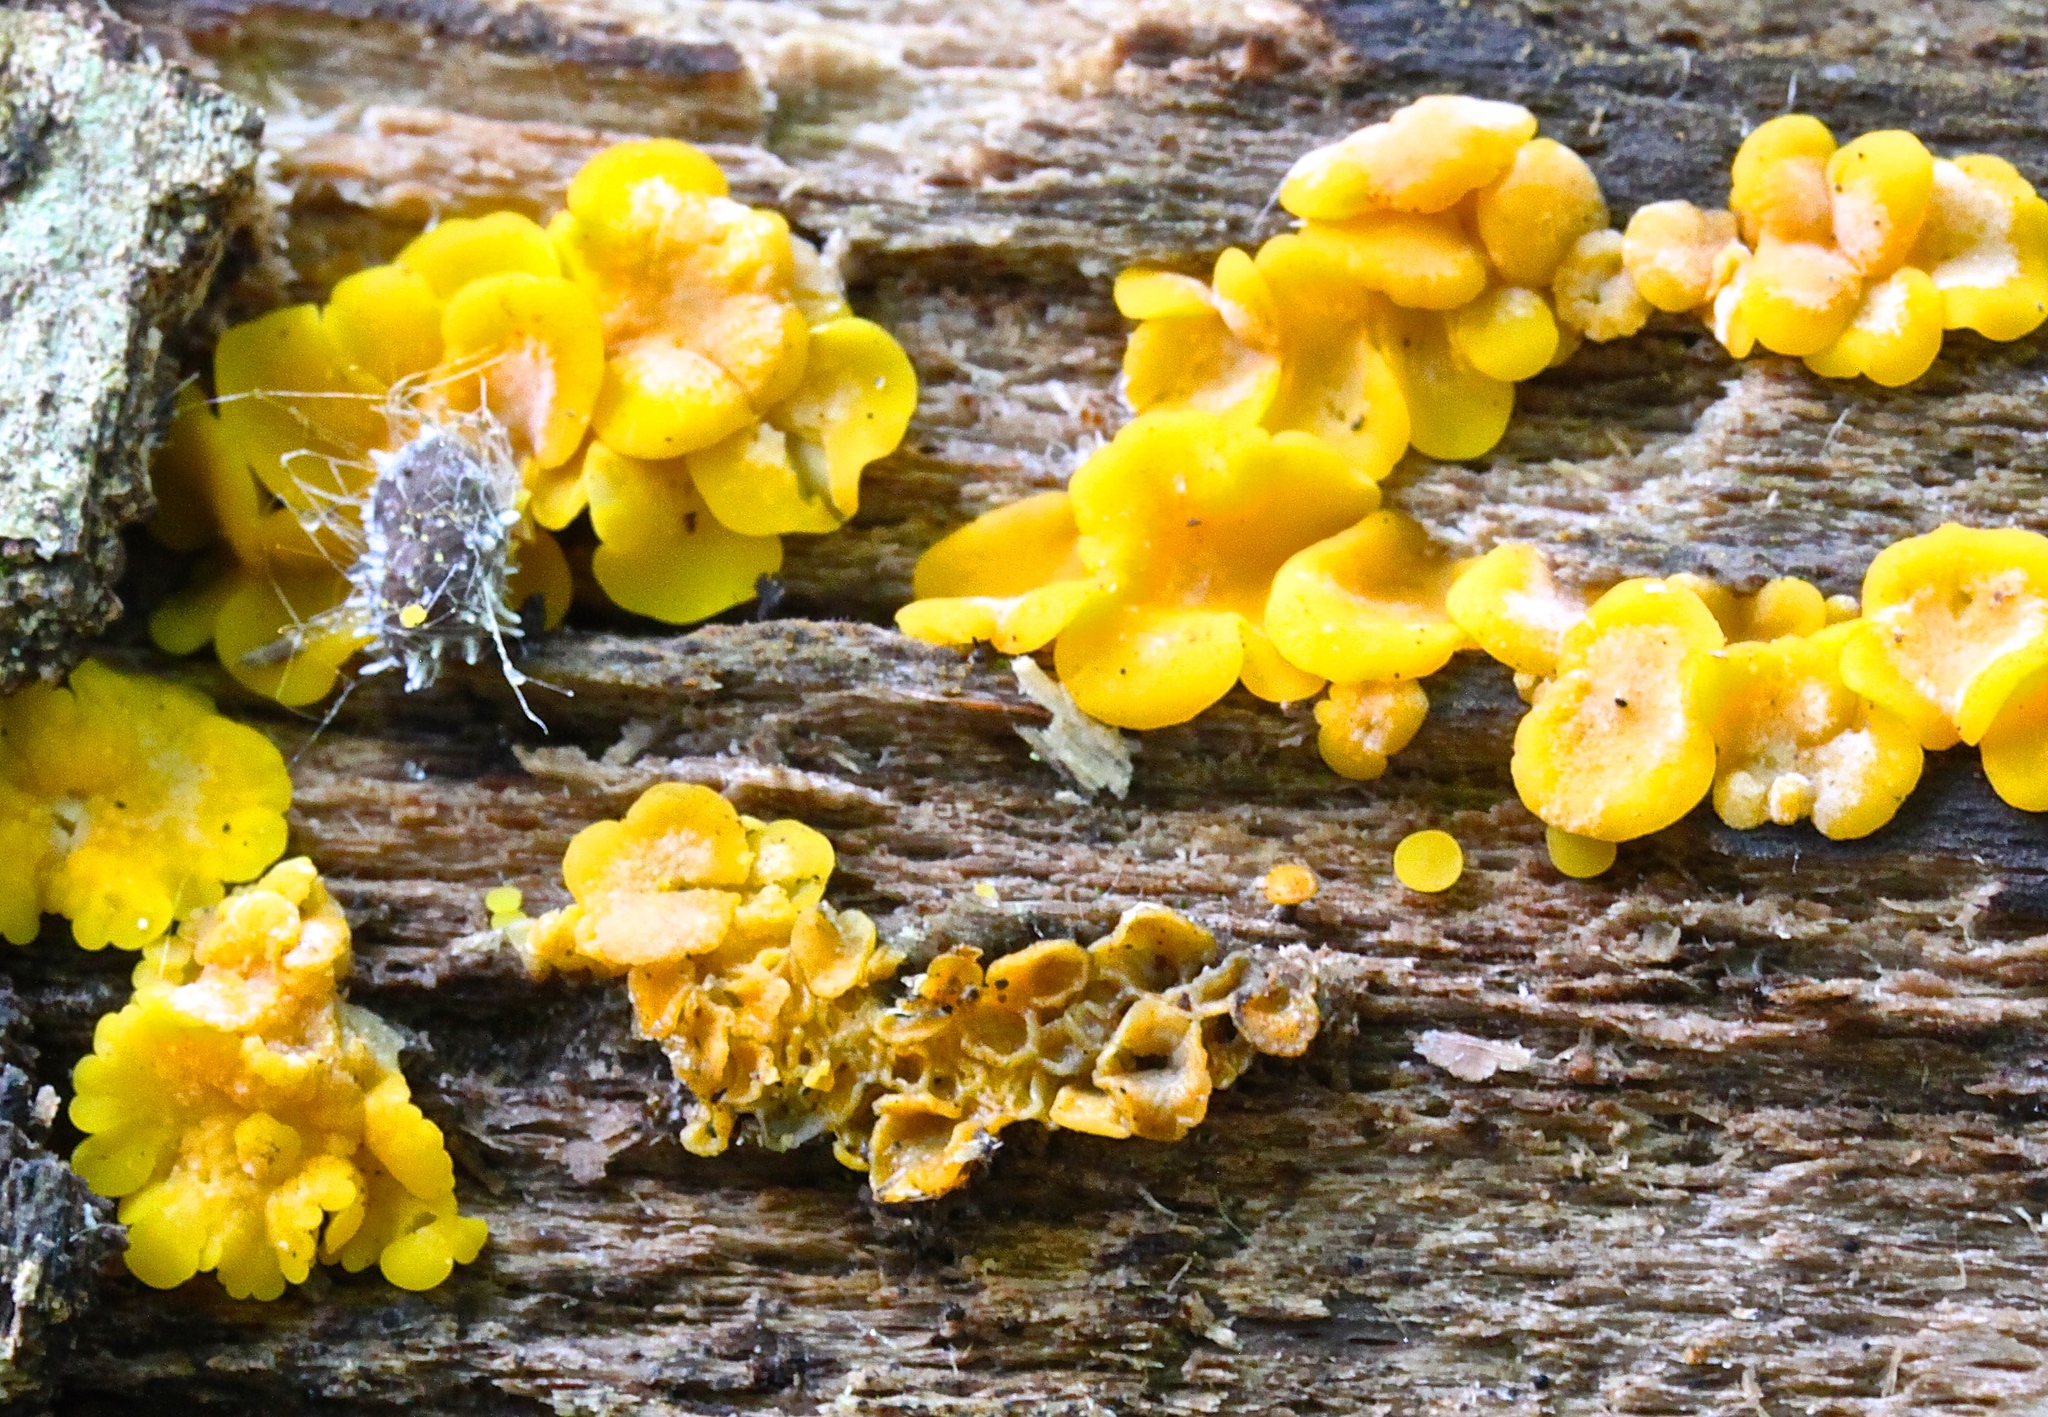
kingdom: Fungi
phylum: Ascomycota
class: Leotiomycetes
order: Helotiales
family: Pezizellaceae
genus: Calycina
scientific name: Calycina citrina
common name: Yellow fairy cups
